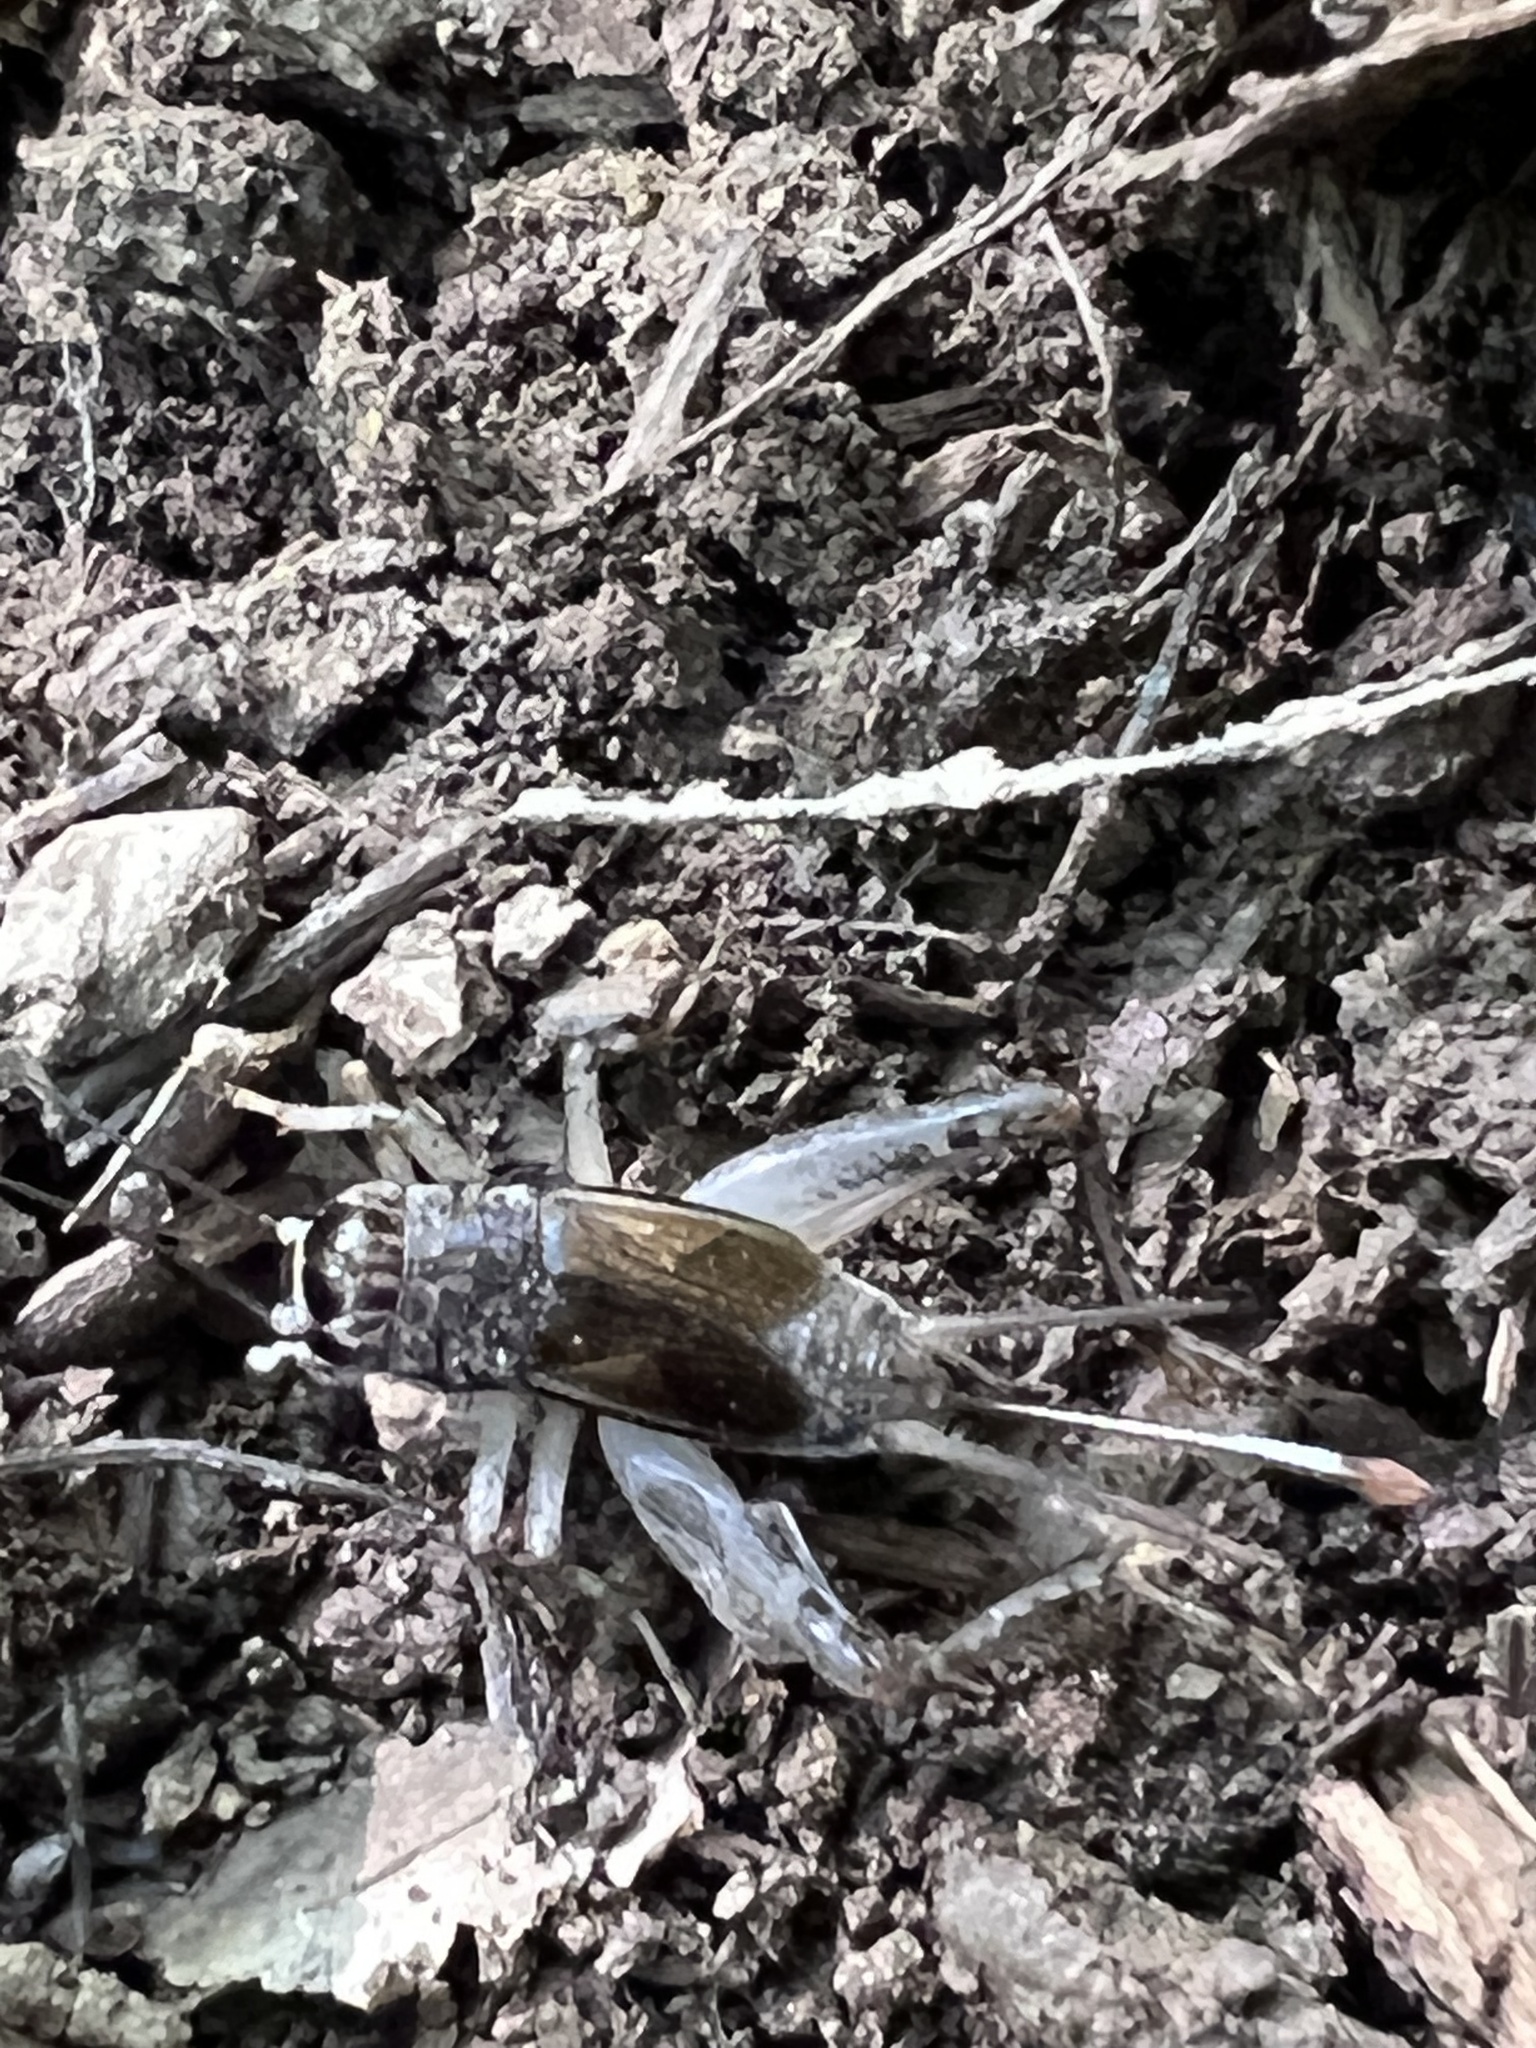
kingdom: Animalia
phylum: Arthropoda
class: Insecta
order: Orthoptera
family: Gryllidae
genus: Velarifictorus
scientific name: Velarifictorus micado
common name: Japanese burrowing cricket
